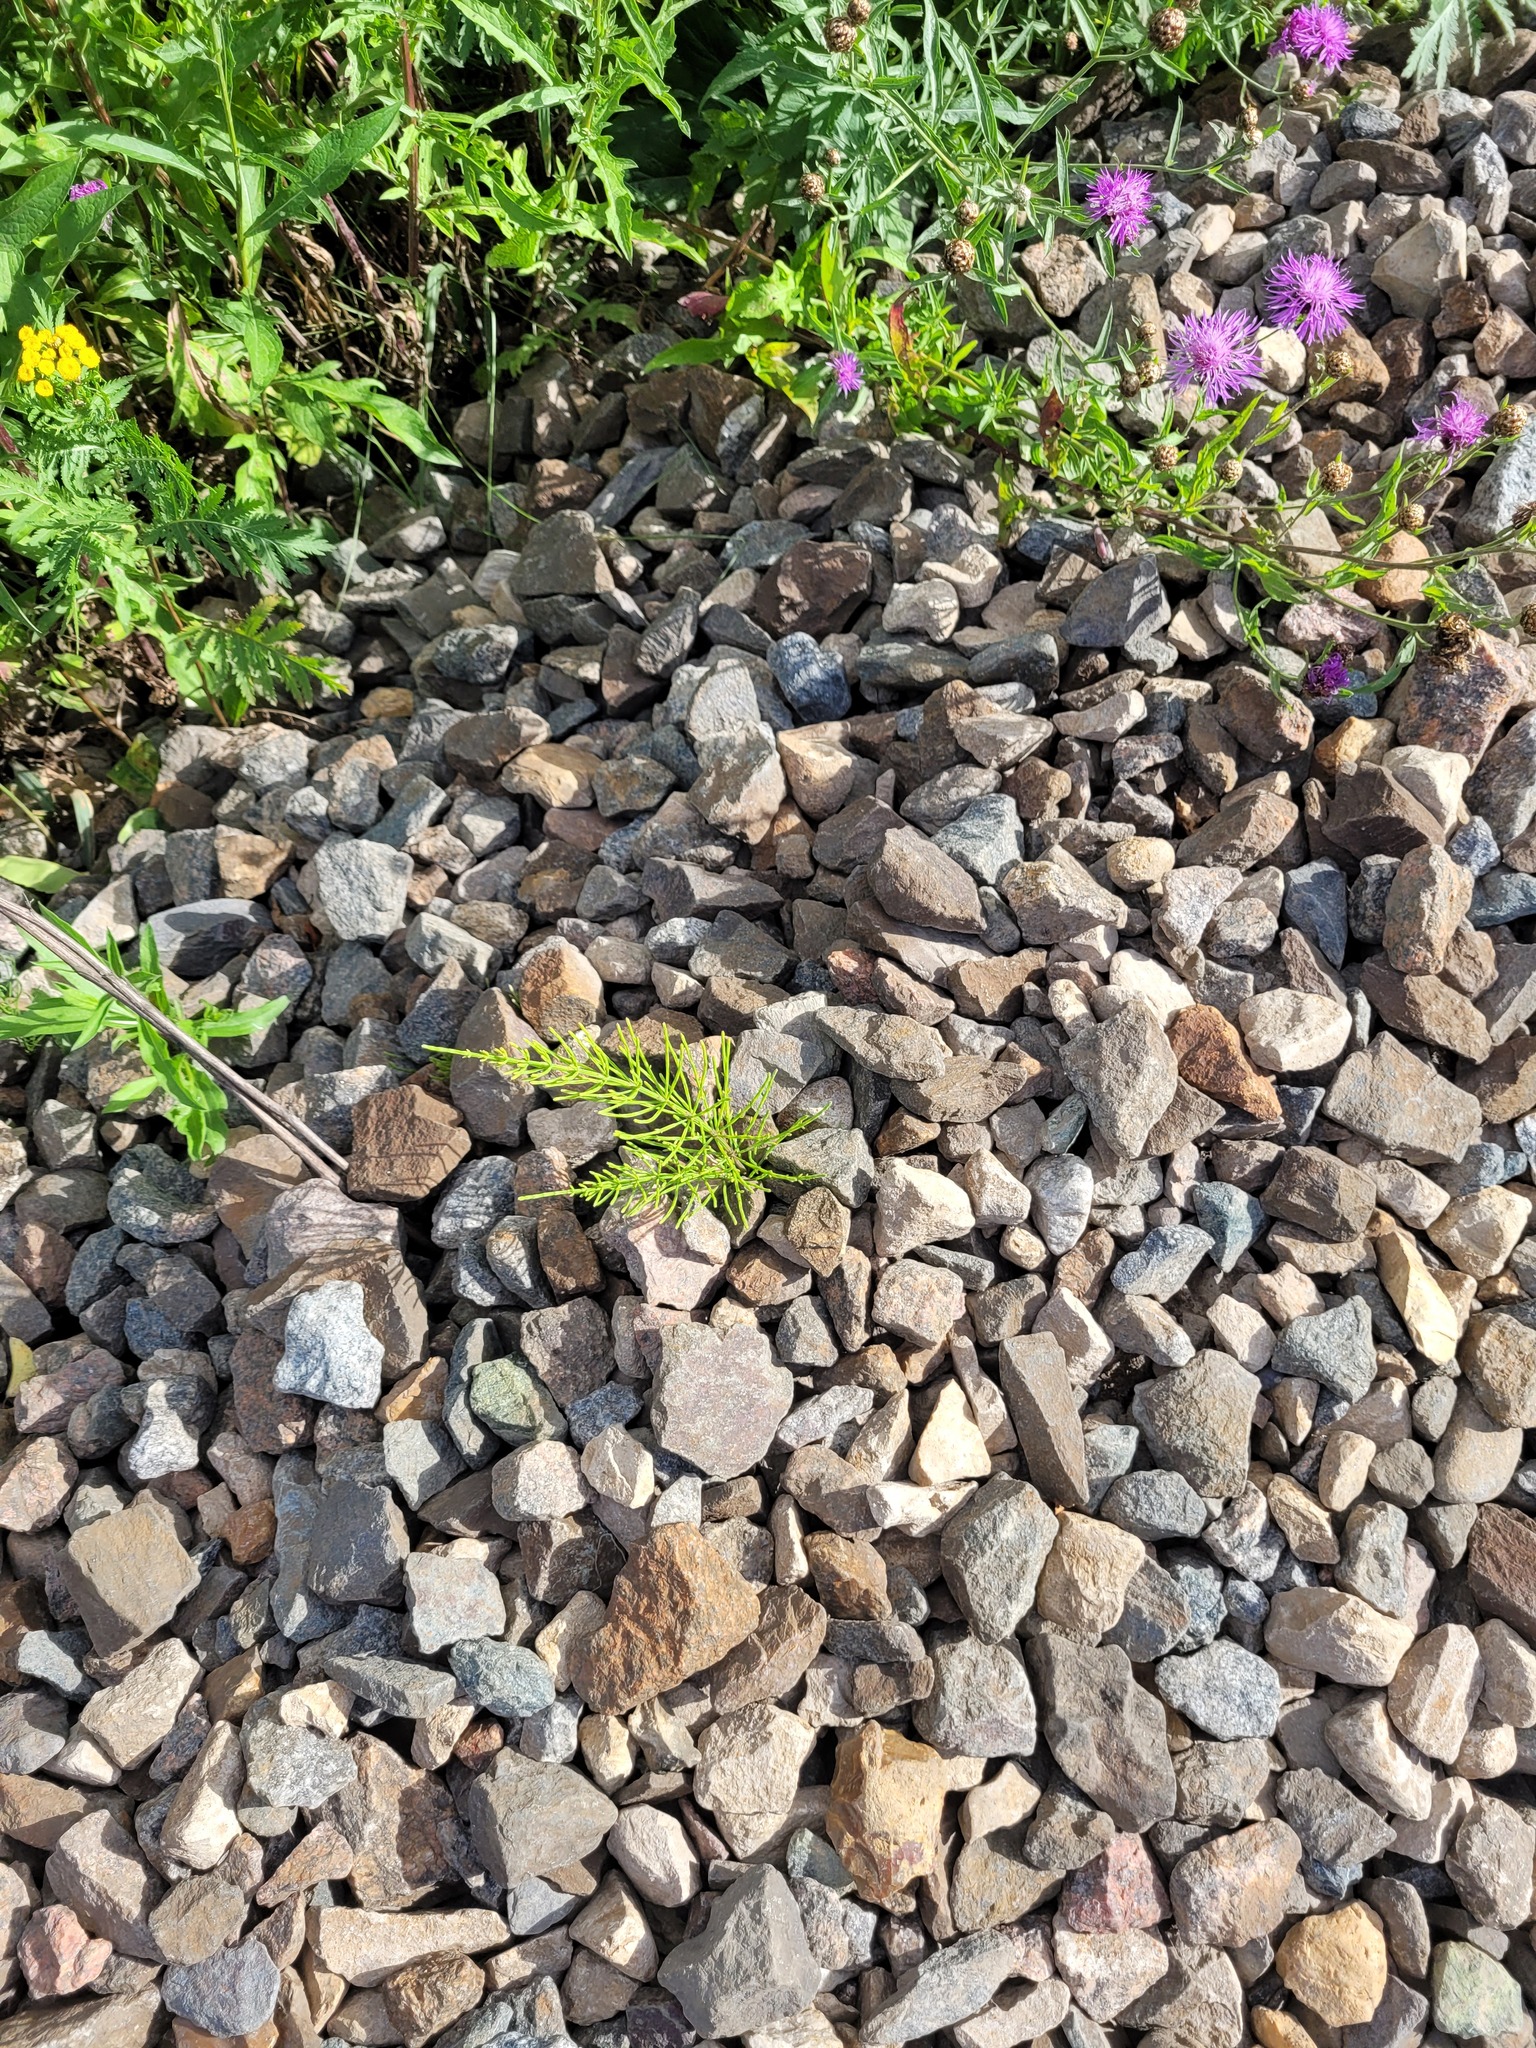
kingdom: Plantae
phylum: Tracheophyta
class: Polypodiopsida
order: Equisetales
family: Equisetaceae
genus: Equisetum
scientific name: Equisetum arvense
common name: Field horsetail
